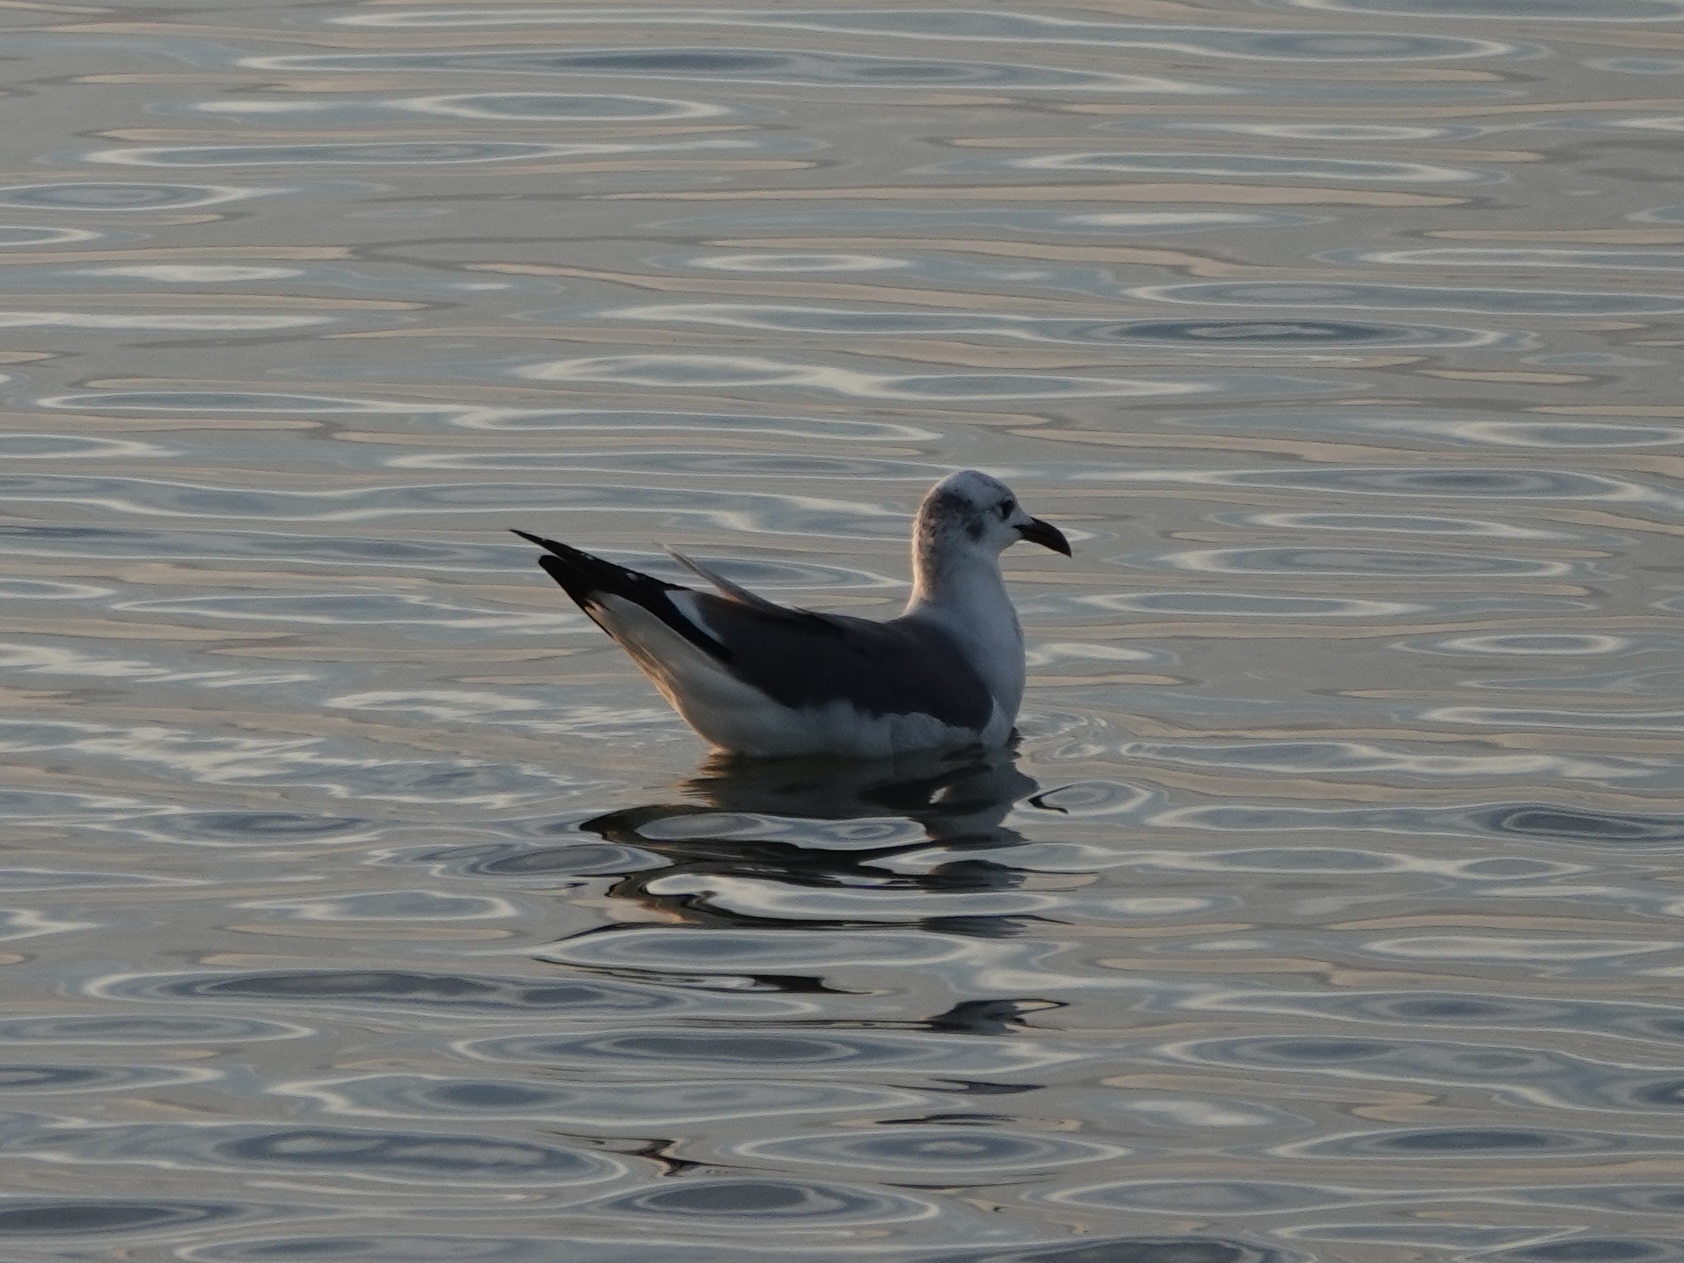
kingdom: Animalia
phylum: Chordata
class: Aves
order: Charadriiformes
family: Laridae
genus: Leucophaeus
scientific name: Leucophaeus atricilla
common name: Laughing gull
